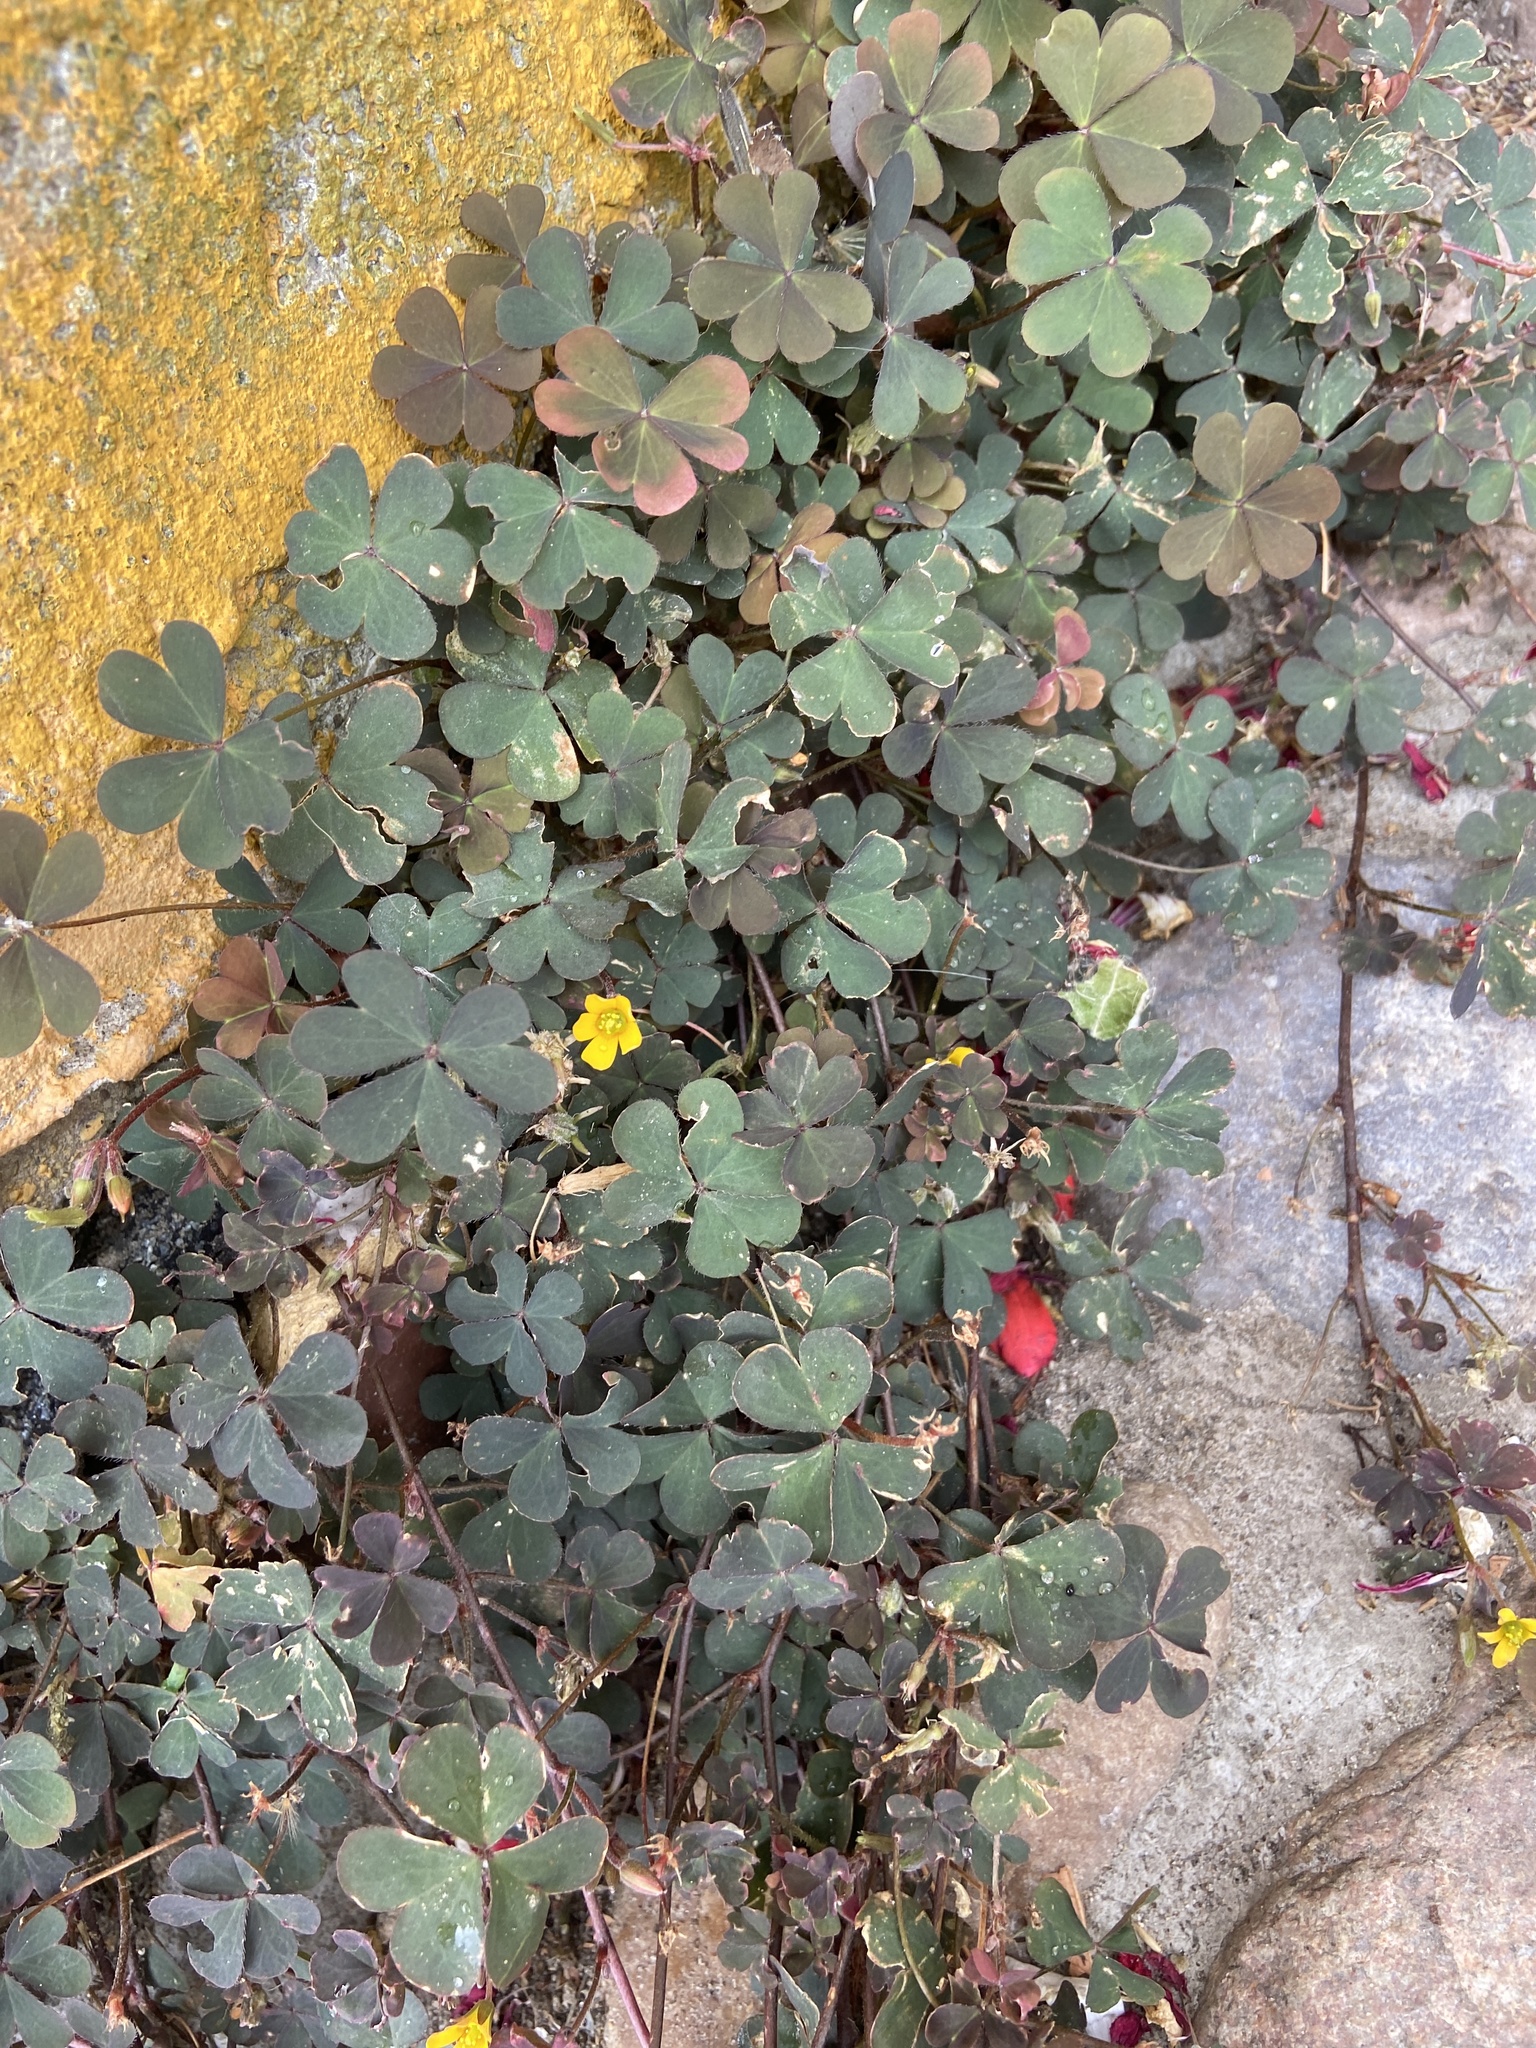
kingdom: Plantae
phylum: Tracheophyta
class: Magnoliopsida
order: Oxalidales
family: Oxalidaceae
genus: Oxalis
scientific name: Oxalis corniculata
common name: Procumbent yellow-sorrel
